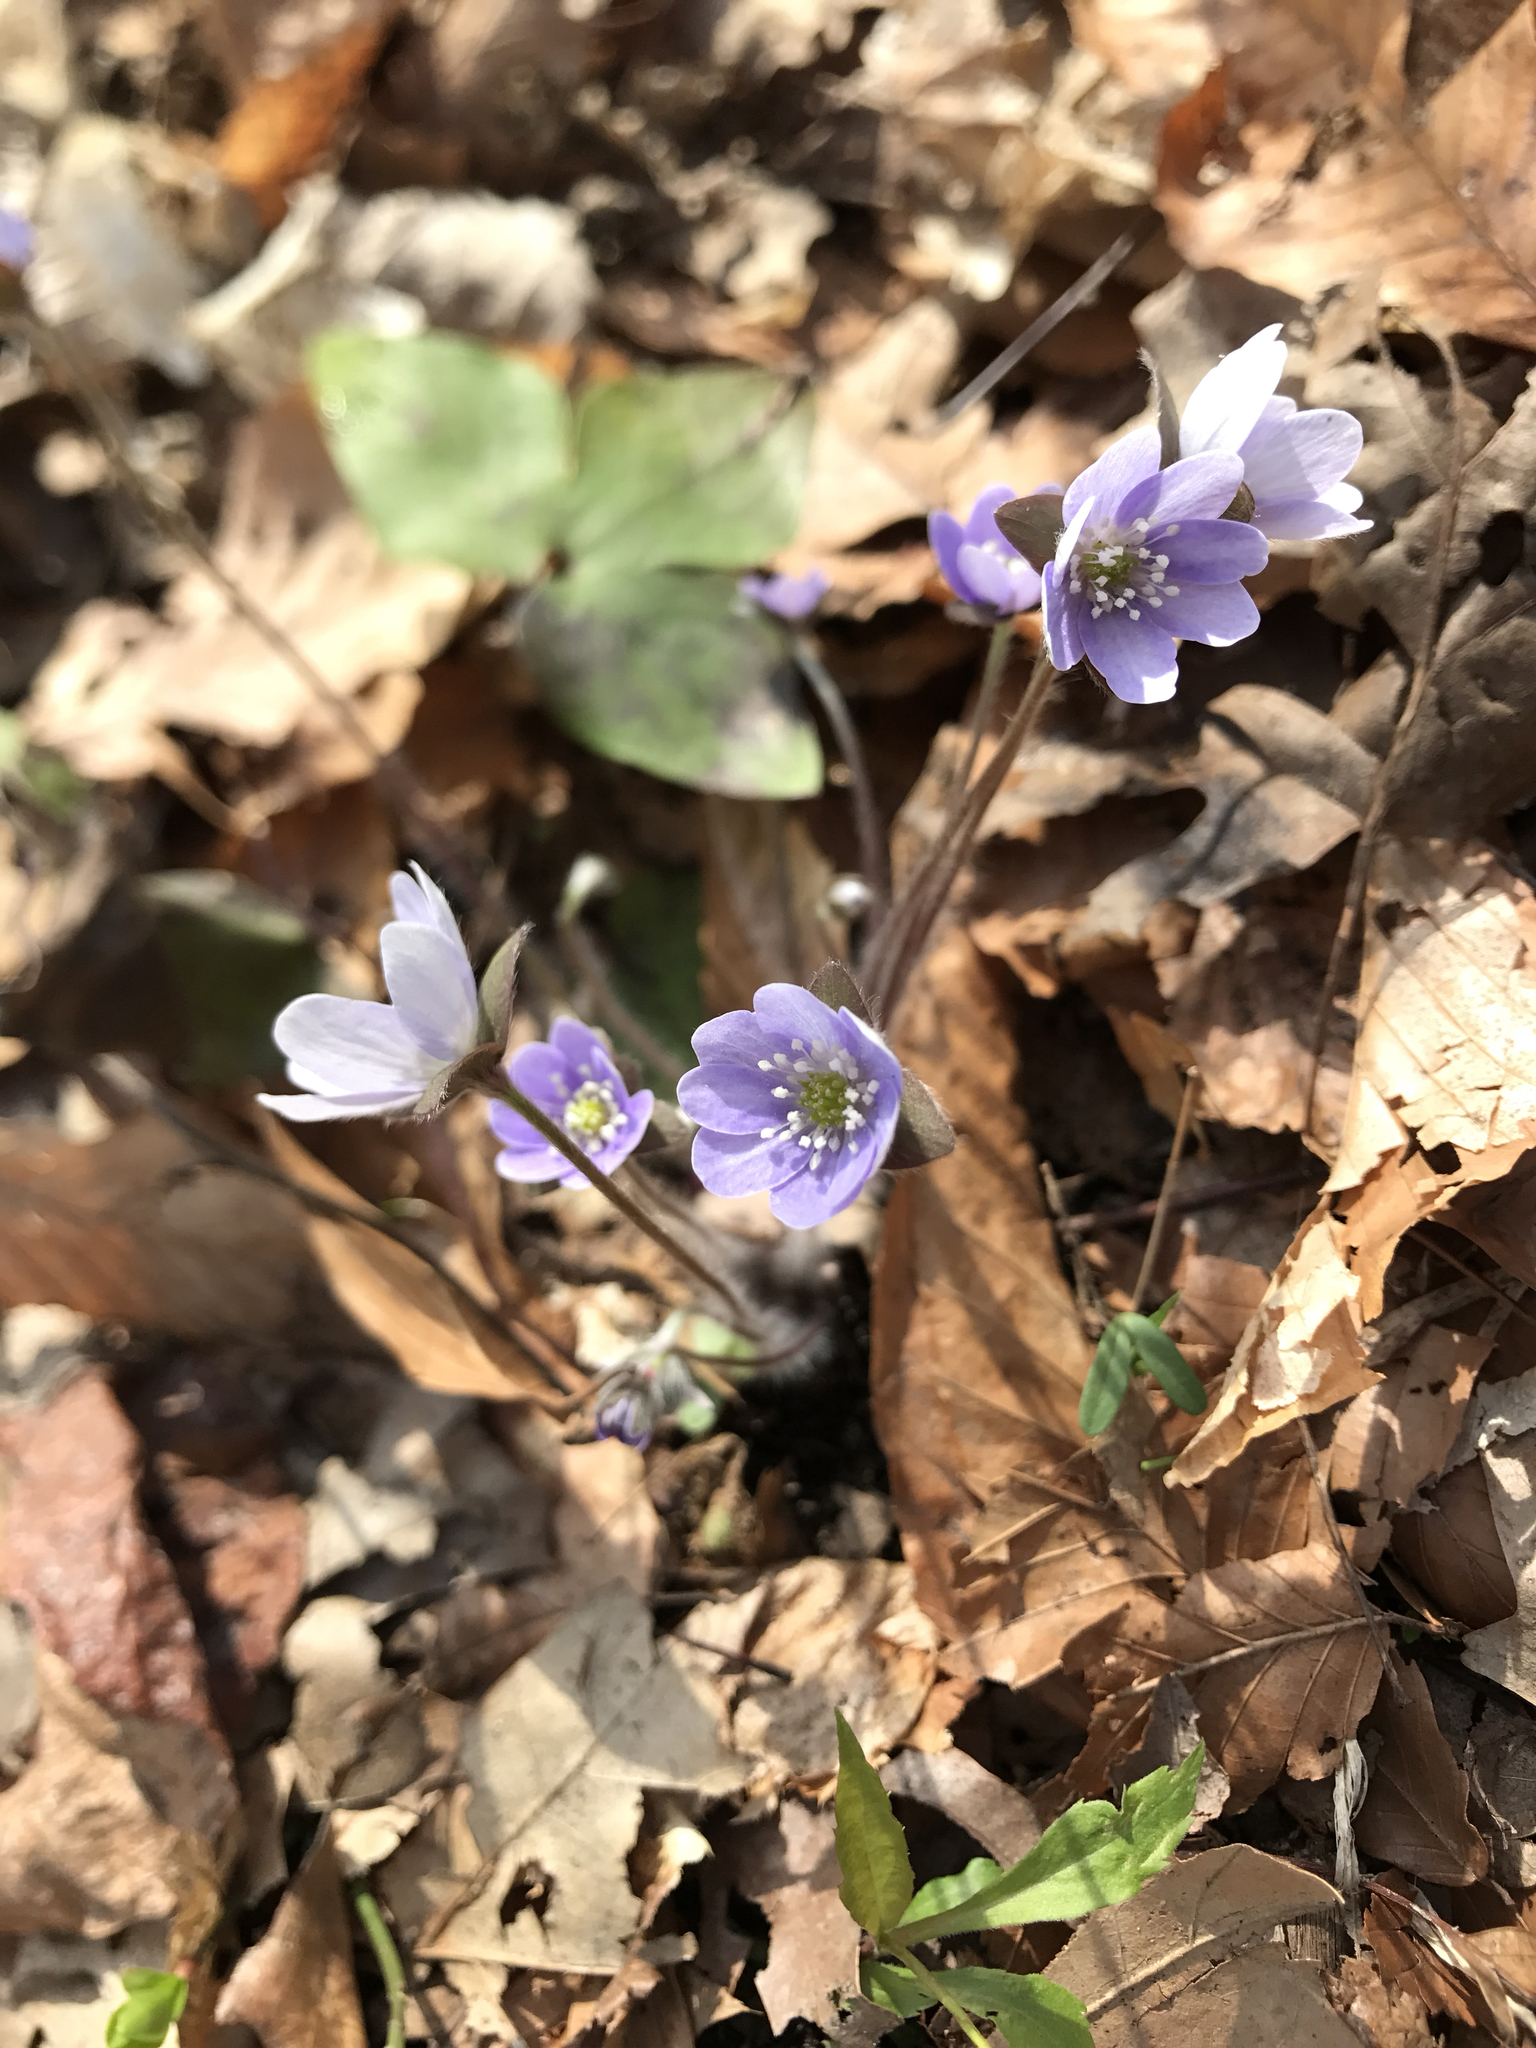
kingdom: Plantae
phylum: Tracheophyta
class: Magnoliopsida
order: Ranunculales
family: Ranunculaceae
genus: Hepatica
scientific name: Hepatica acutiloba
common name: Sharp-lobed hepatica
